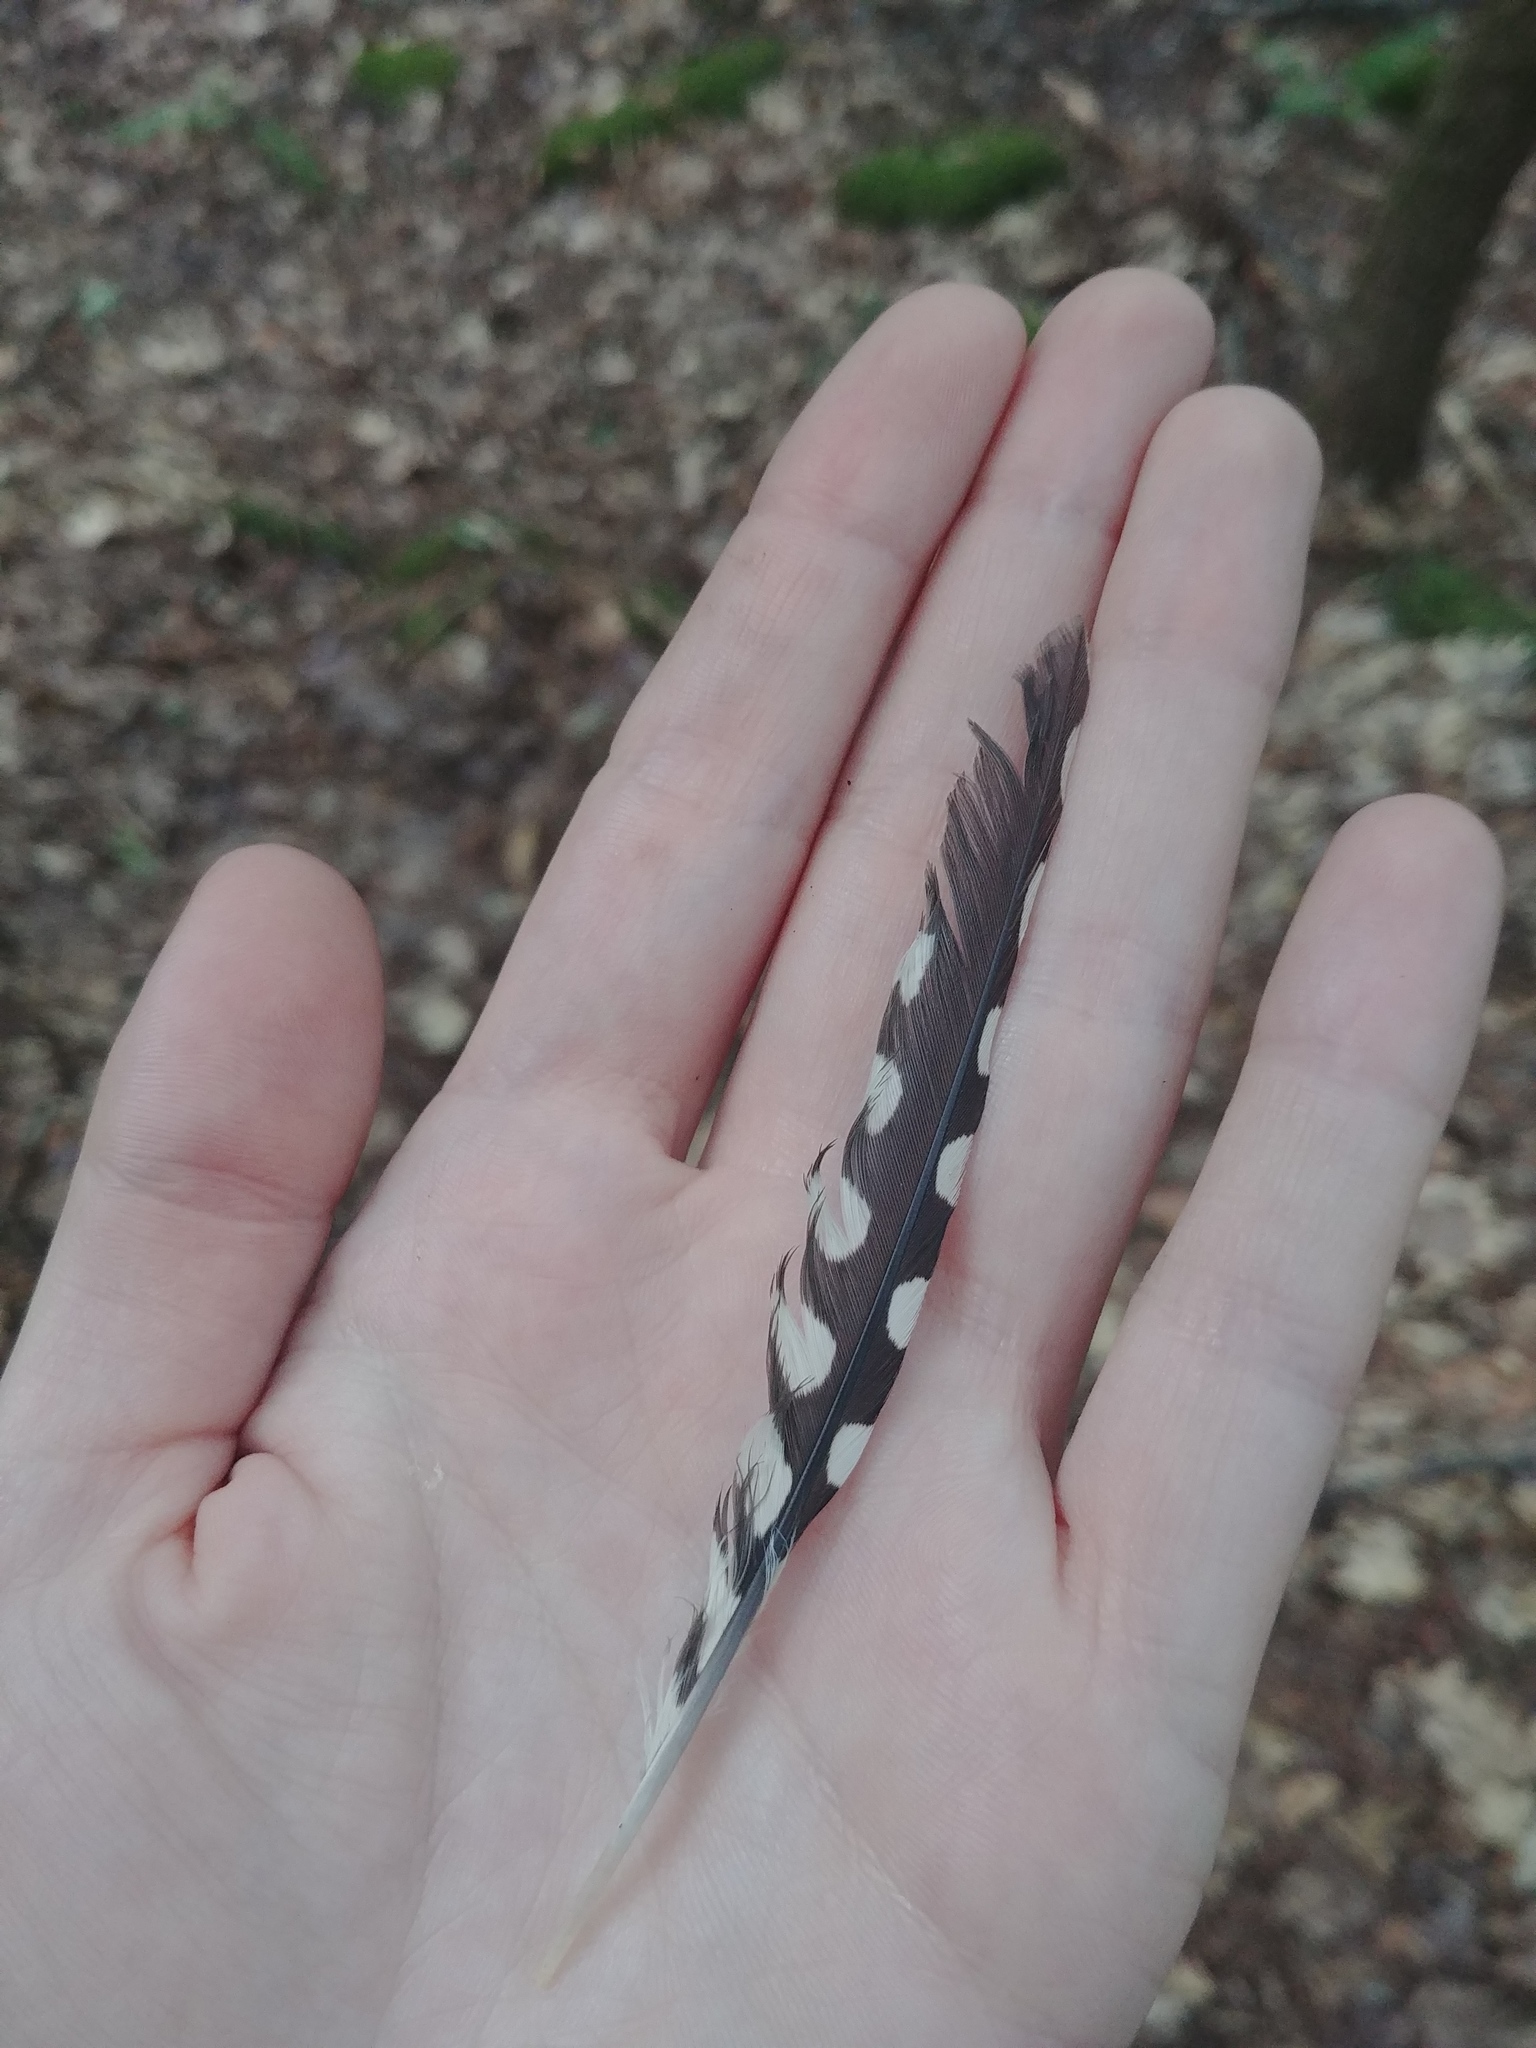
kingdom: Animalia
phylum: Chordata
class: Aves
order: Piciformes
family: Picidae
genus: Sphyrapicus
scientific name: Sphyrapicus varius
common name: Yellow-bellied sapsucker
